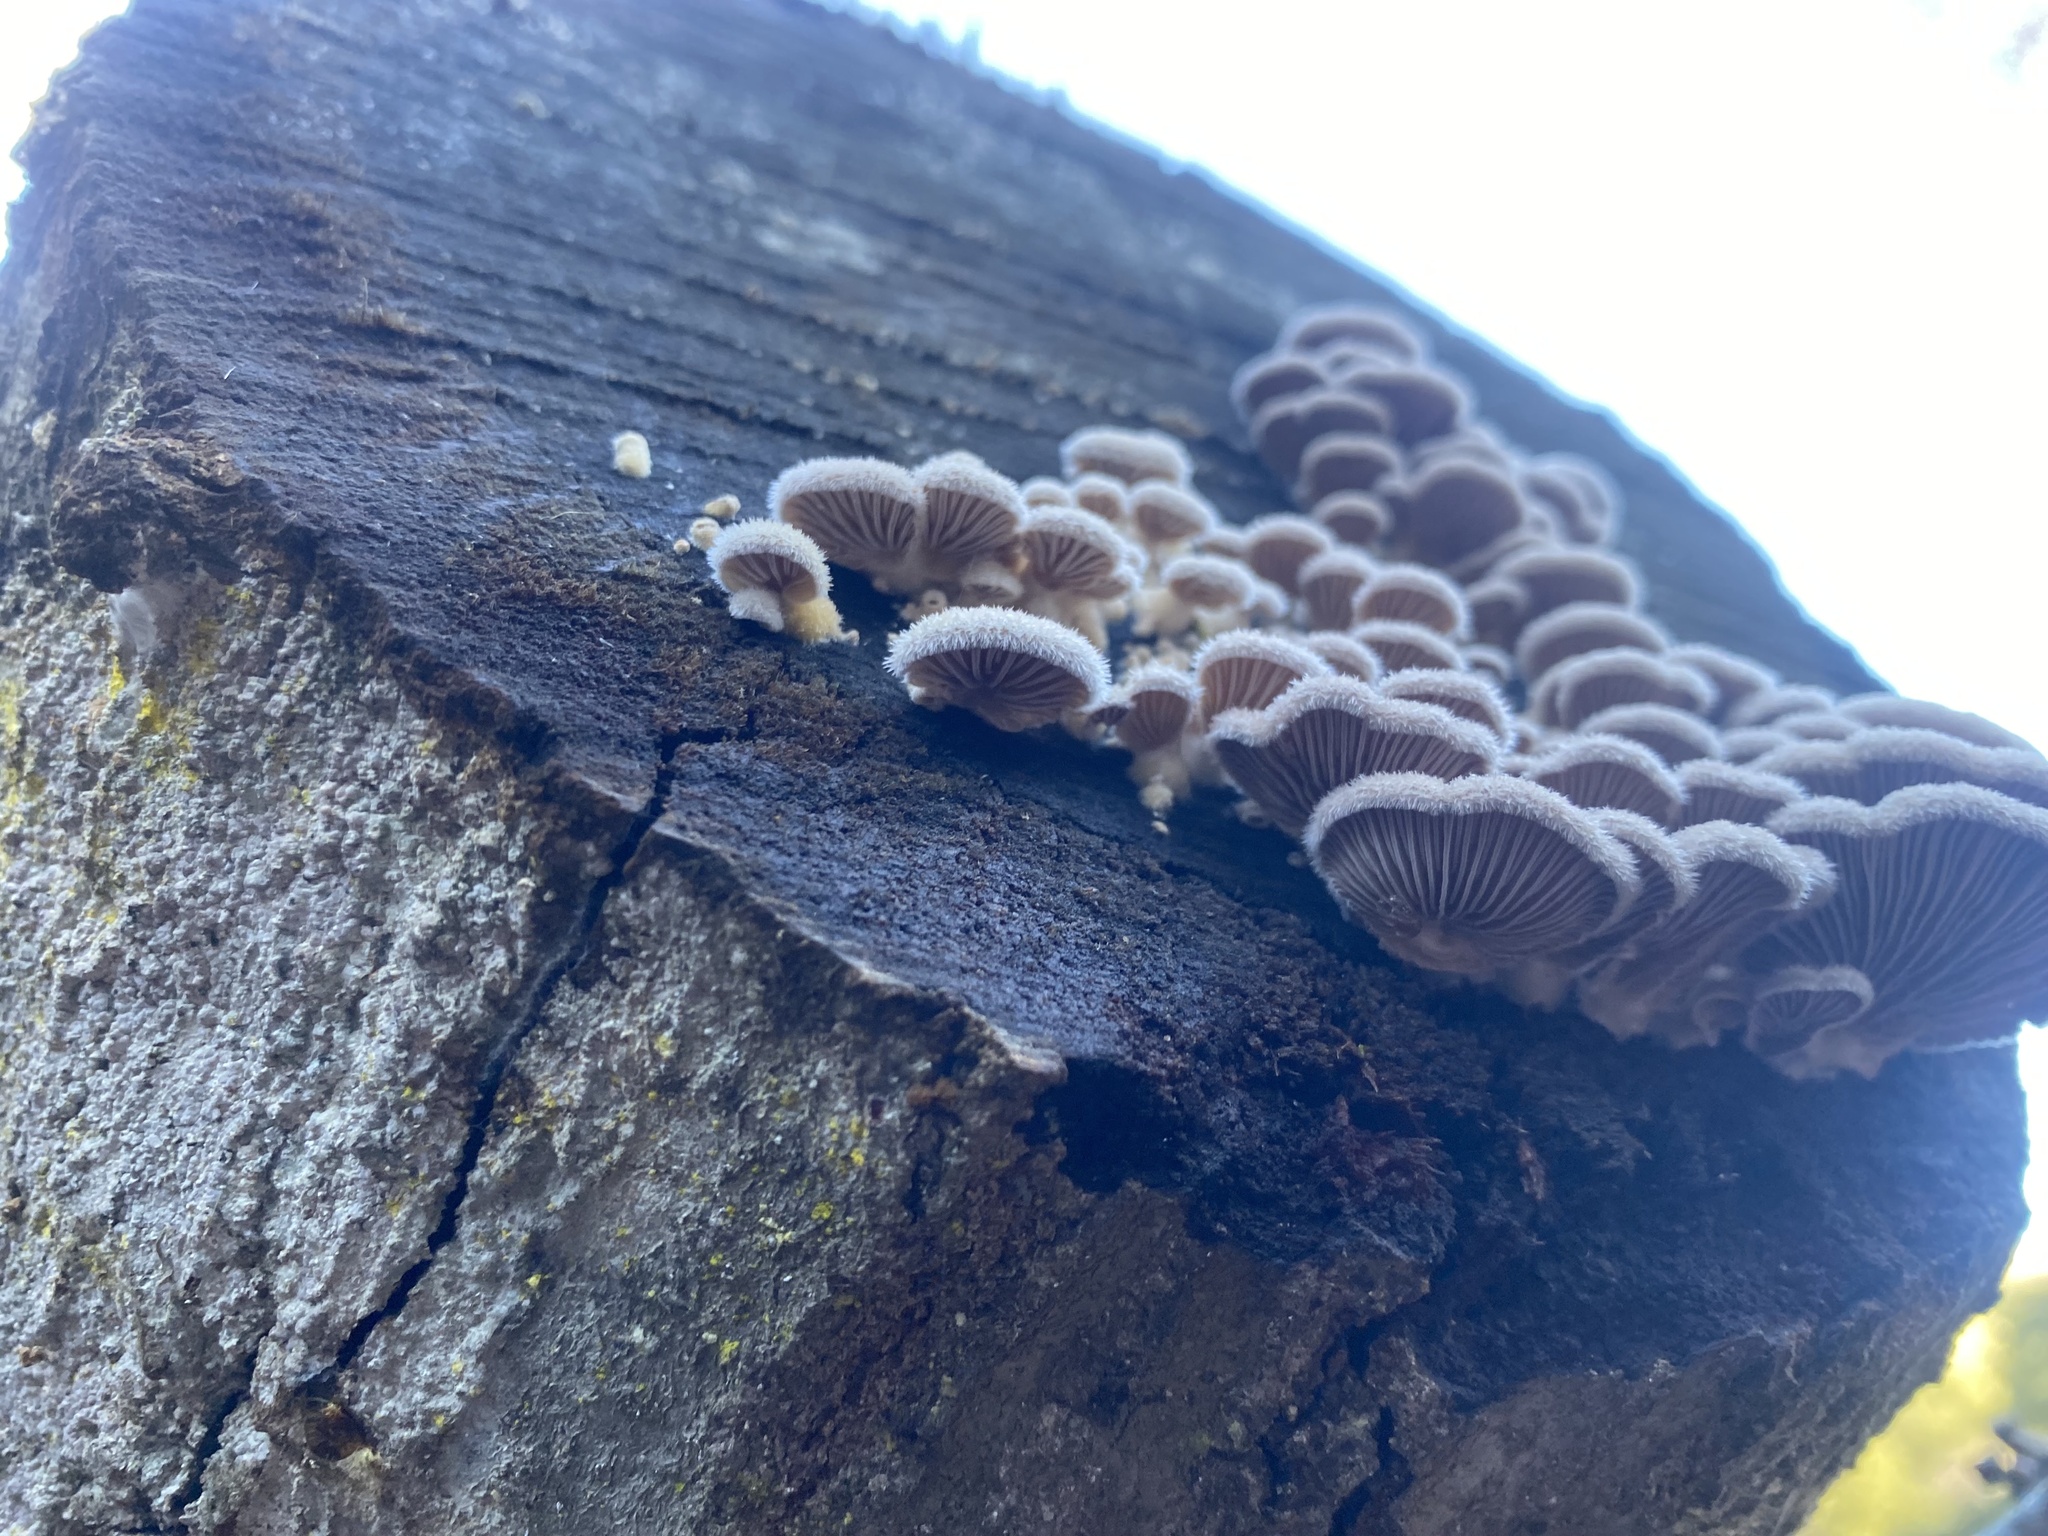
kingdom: Fungi
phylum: Basidiomycota
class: Agaricomycetes
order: Agaricales
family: Schizophyllaceae
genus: Schizophyllum
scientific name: Schizophyllum commune
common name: Common porecrust
